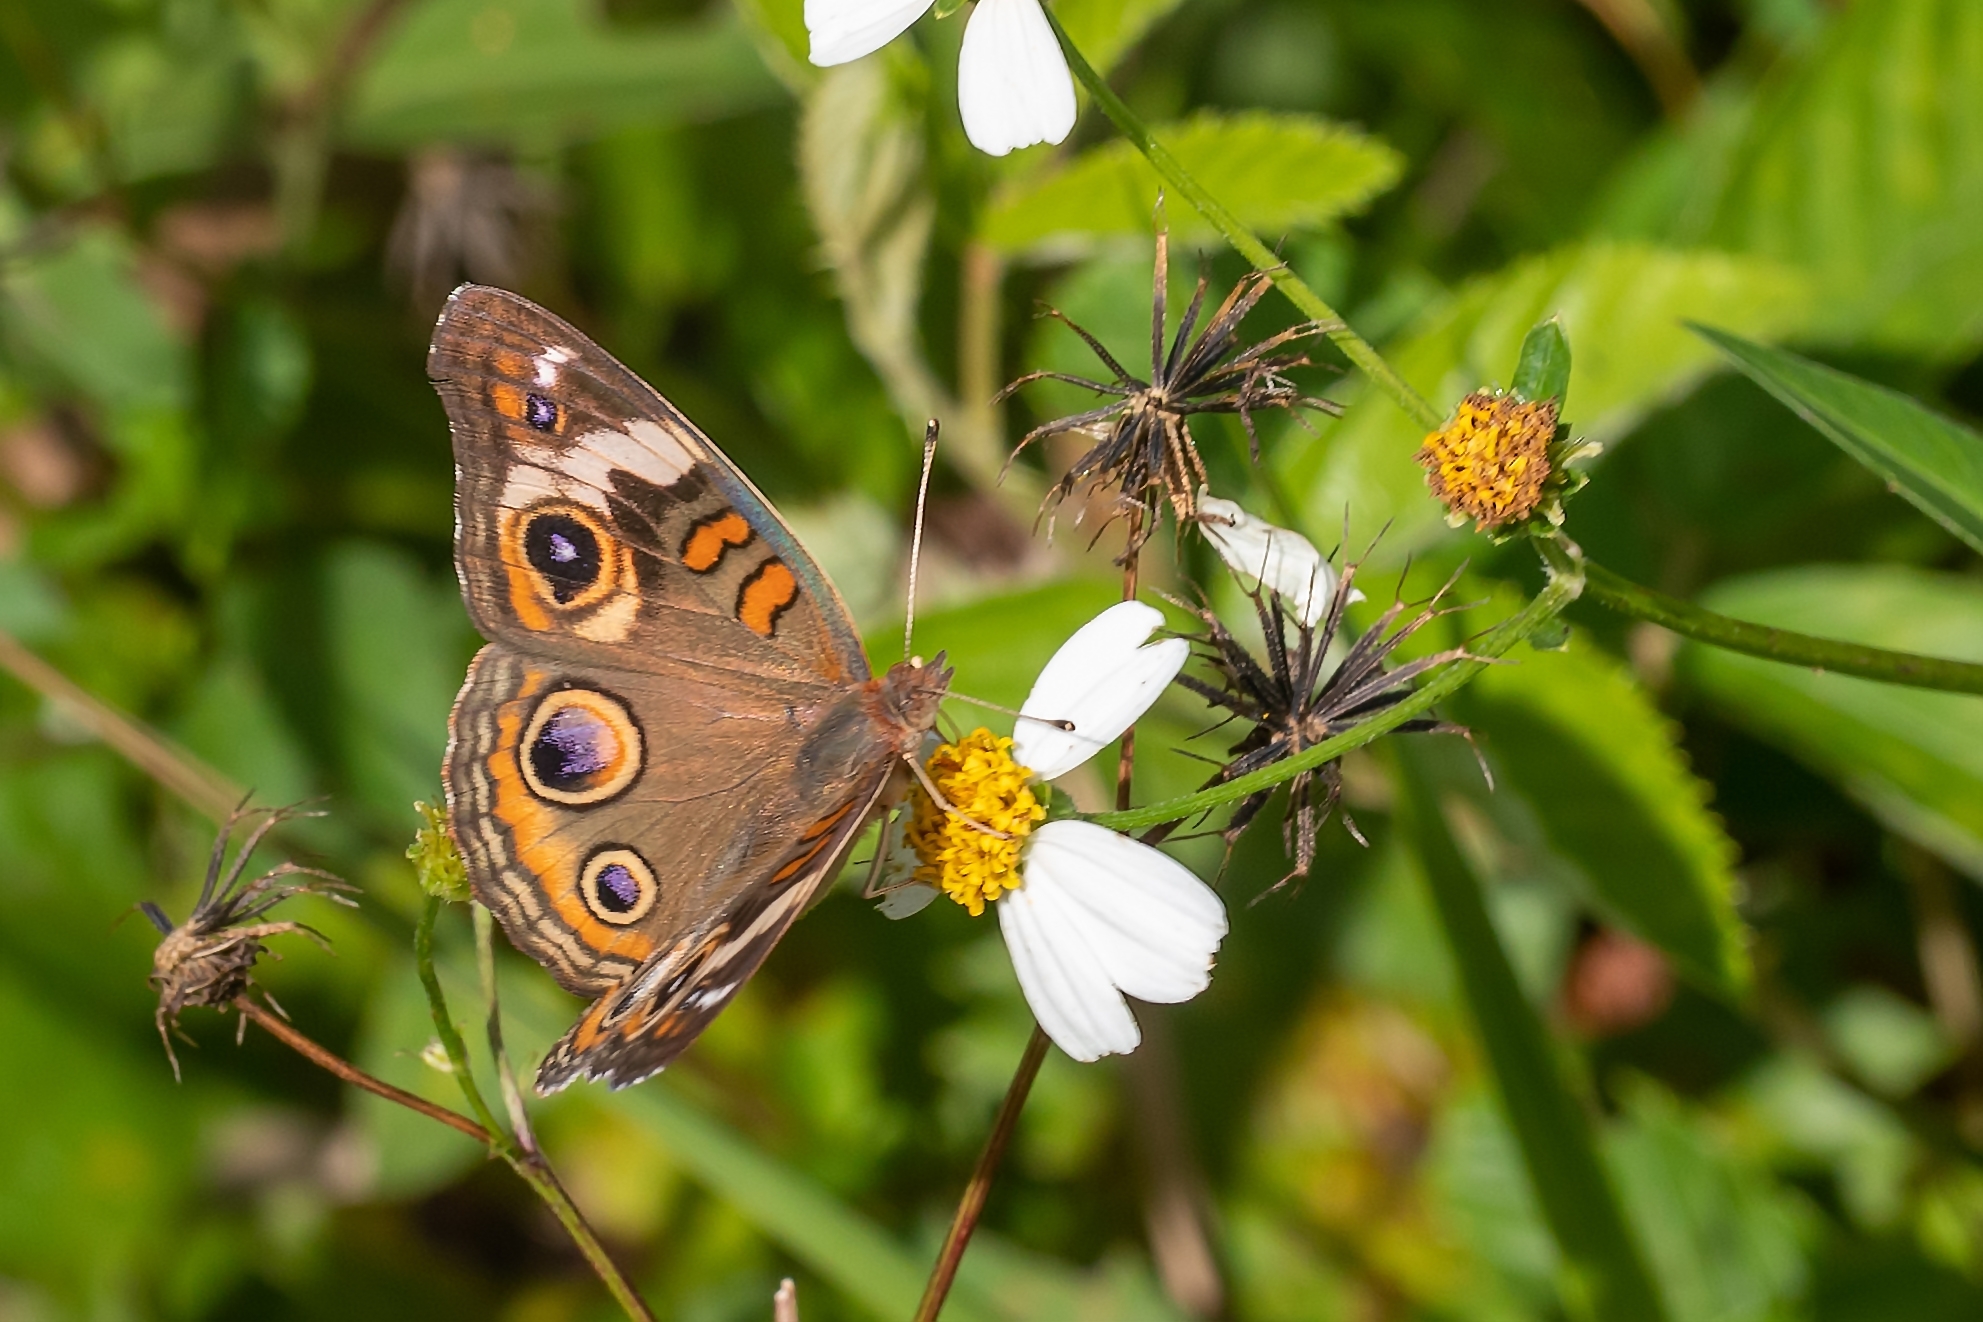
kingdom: Animalia
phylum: Arthropoda
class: Insecta
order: Lepidoptera
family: Nymphalidae
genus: Junonia
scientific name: Junonia coenia
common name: Common buckeye
